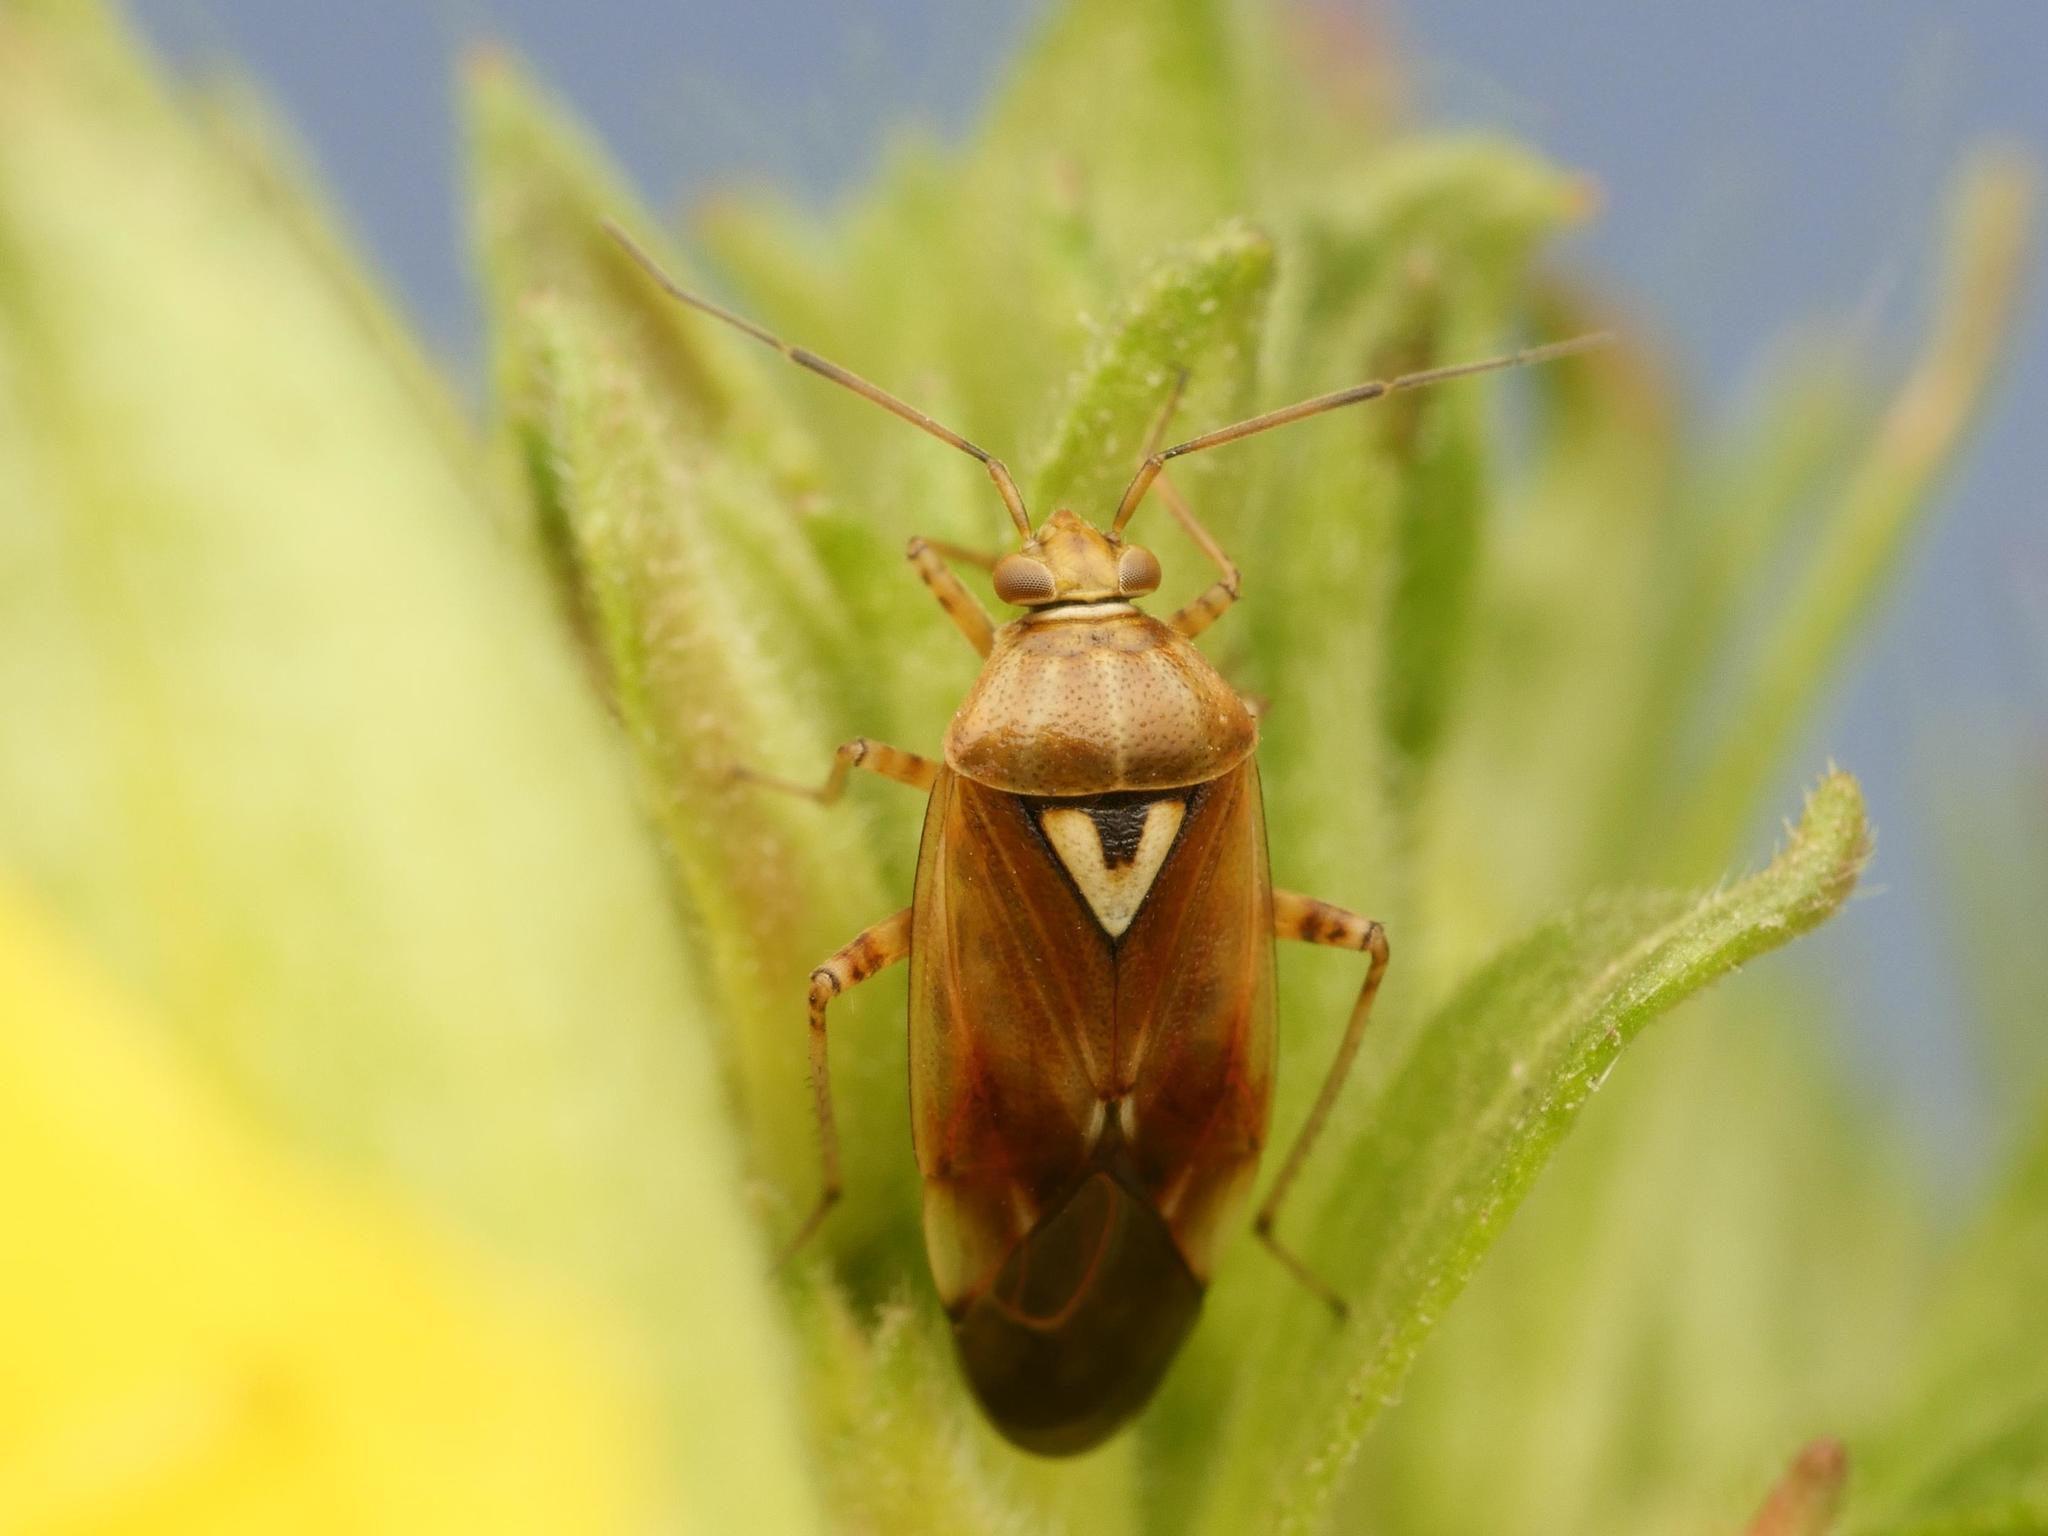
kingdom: Animalia
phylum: Arthropoda
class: Insecta
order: Hemiptera
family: Miridae
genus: Lygus
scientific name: Lygus pratensis
